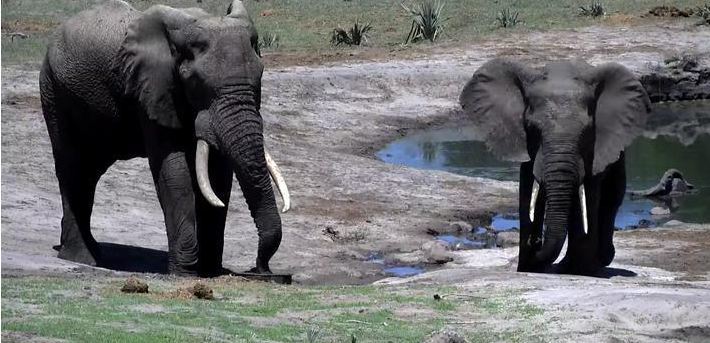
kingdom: Animalia
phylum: Chordata
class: Mammalia
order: Proboscidea
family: Elephantidae
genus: Loxodonta
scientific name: Loxodonta africana
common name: African elephant
